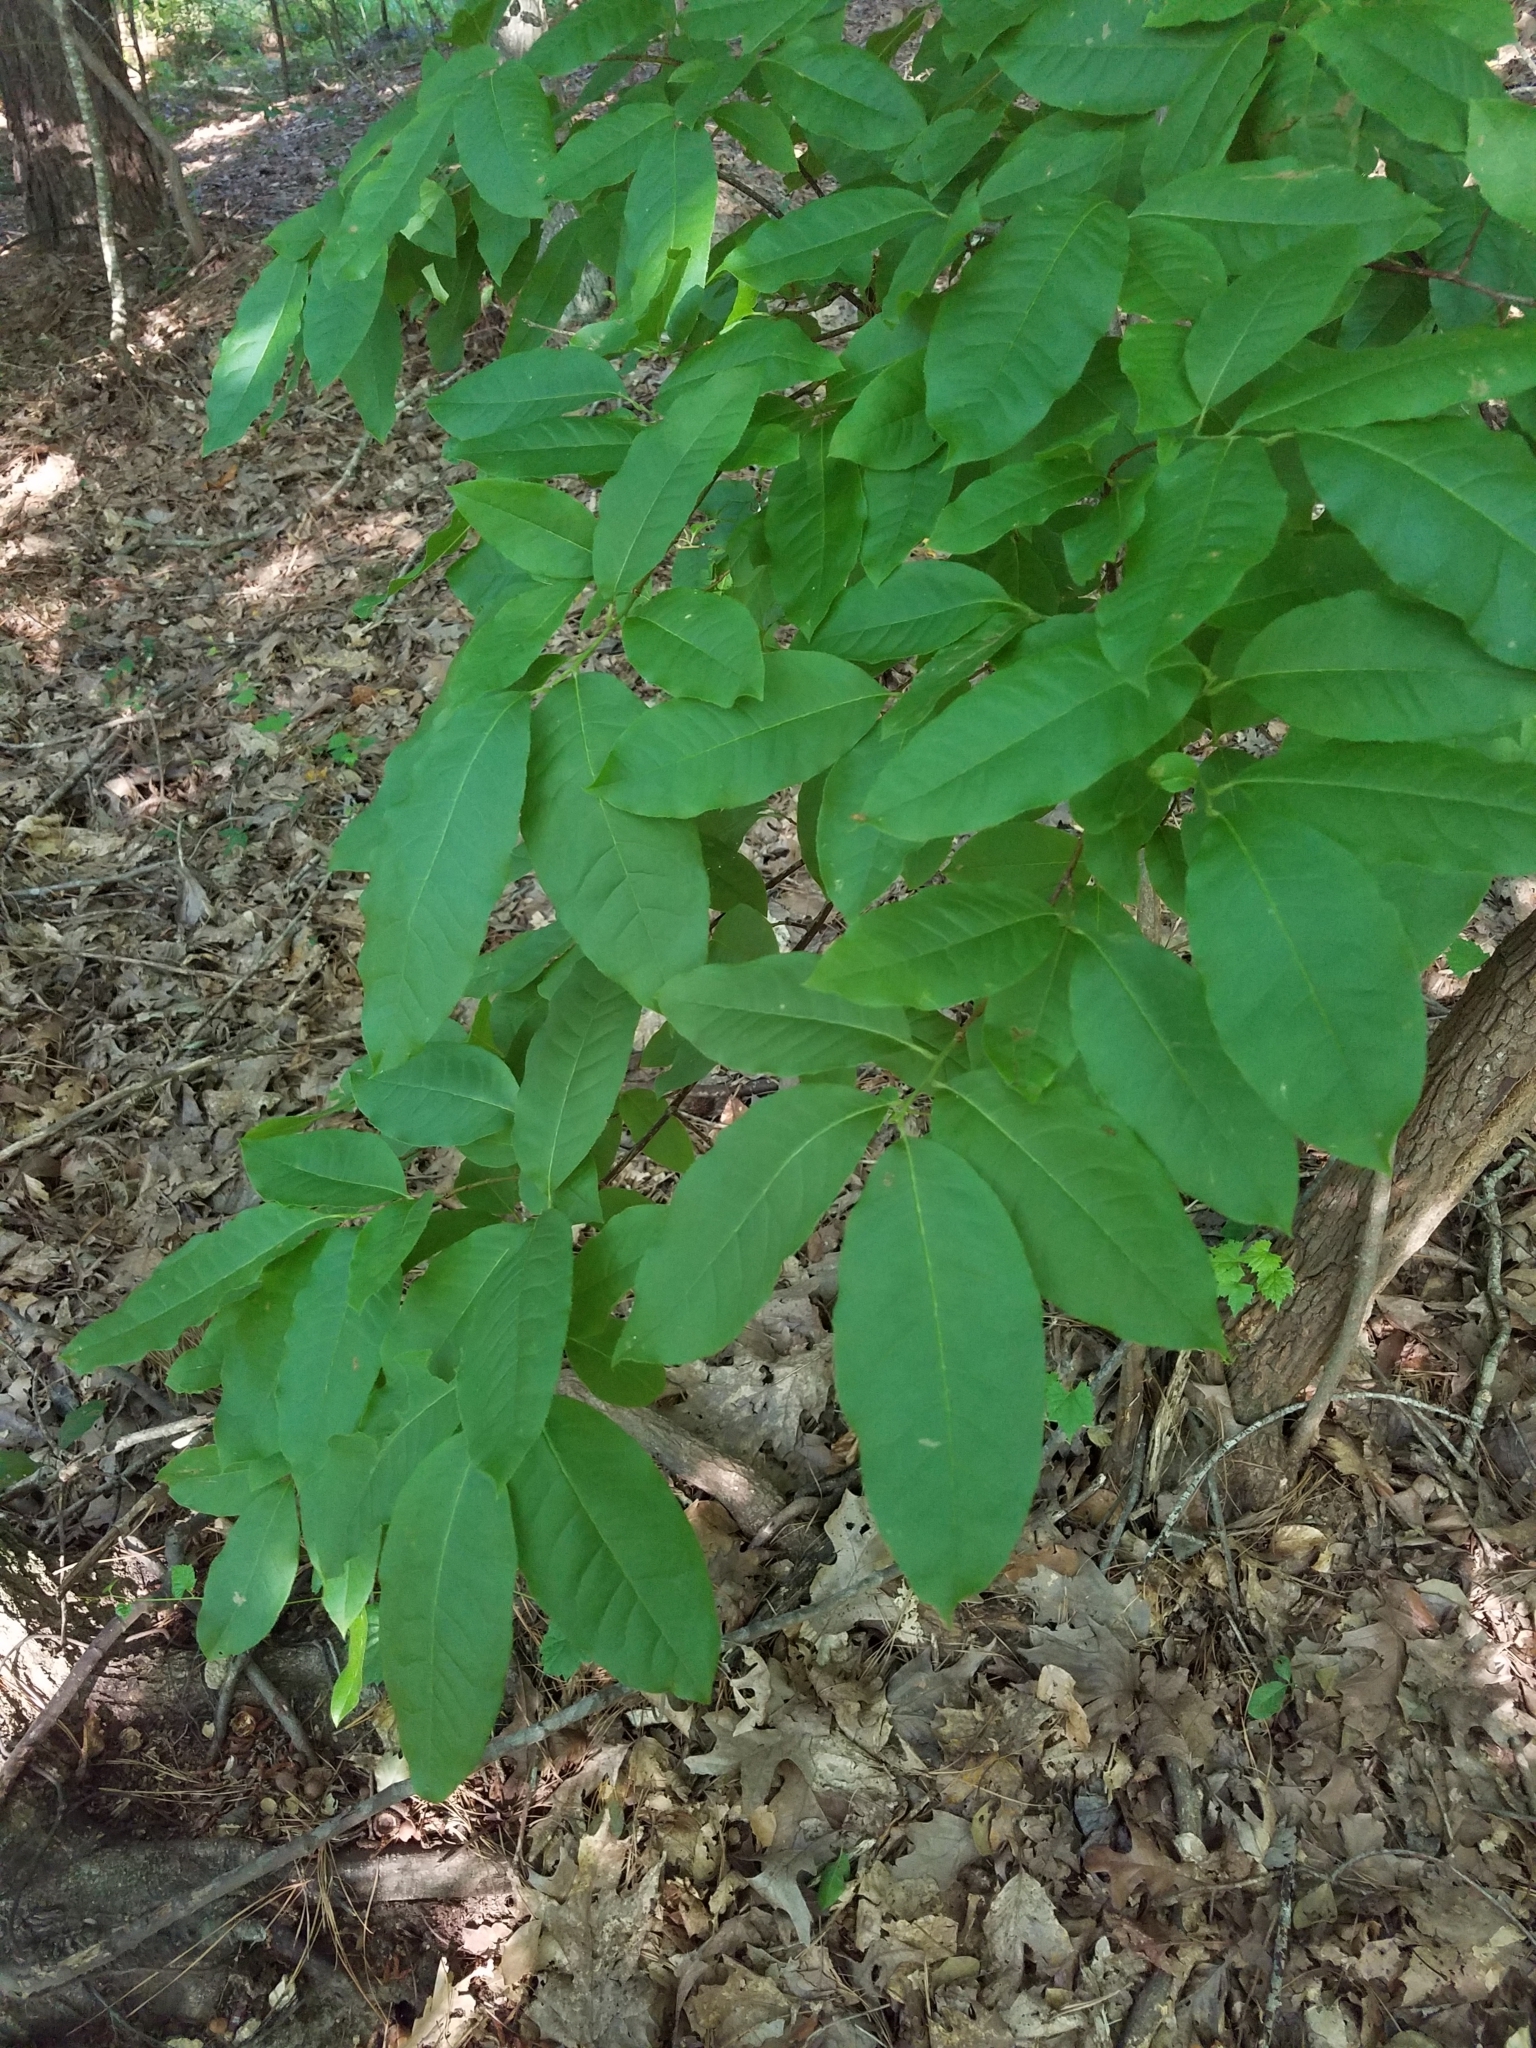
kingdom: Plantae
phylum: Tracheophyta
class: Magnoliopsida
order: Ericales
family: Ericaceae
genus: Oxydendrum
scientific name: Oxydendrum arboreum
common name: Sourwood
